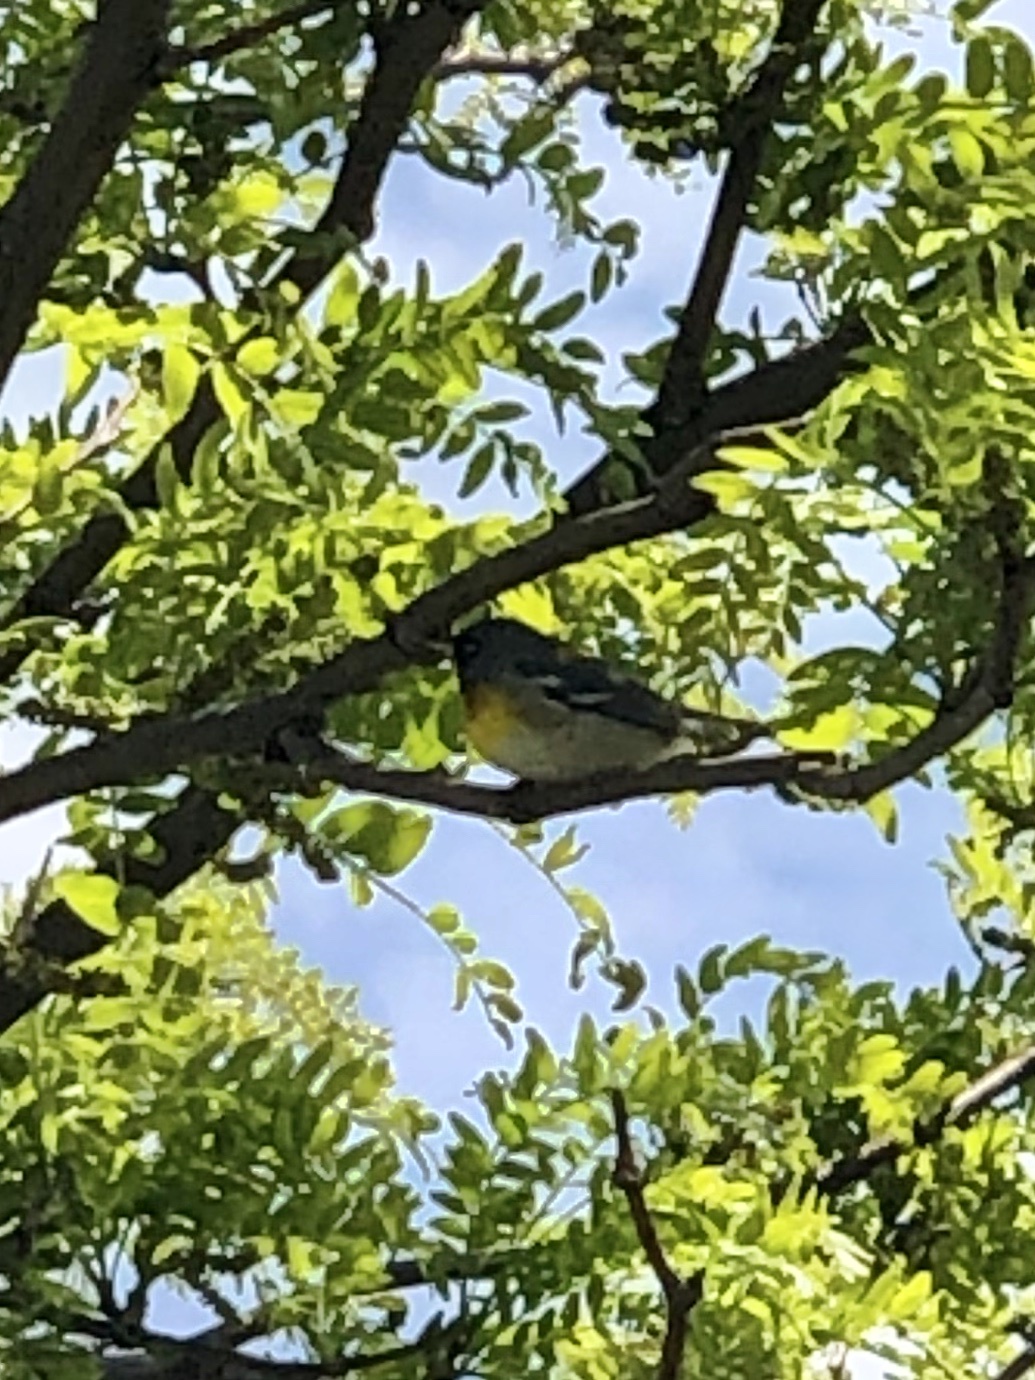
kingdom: Animalia
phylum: Chordata
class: Aves
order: Passeriformes
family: Parulidae
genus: Setophaga
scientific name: Setophaga americana
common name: Northern parula
